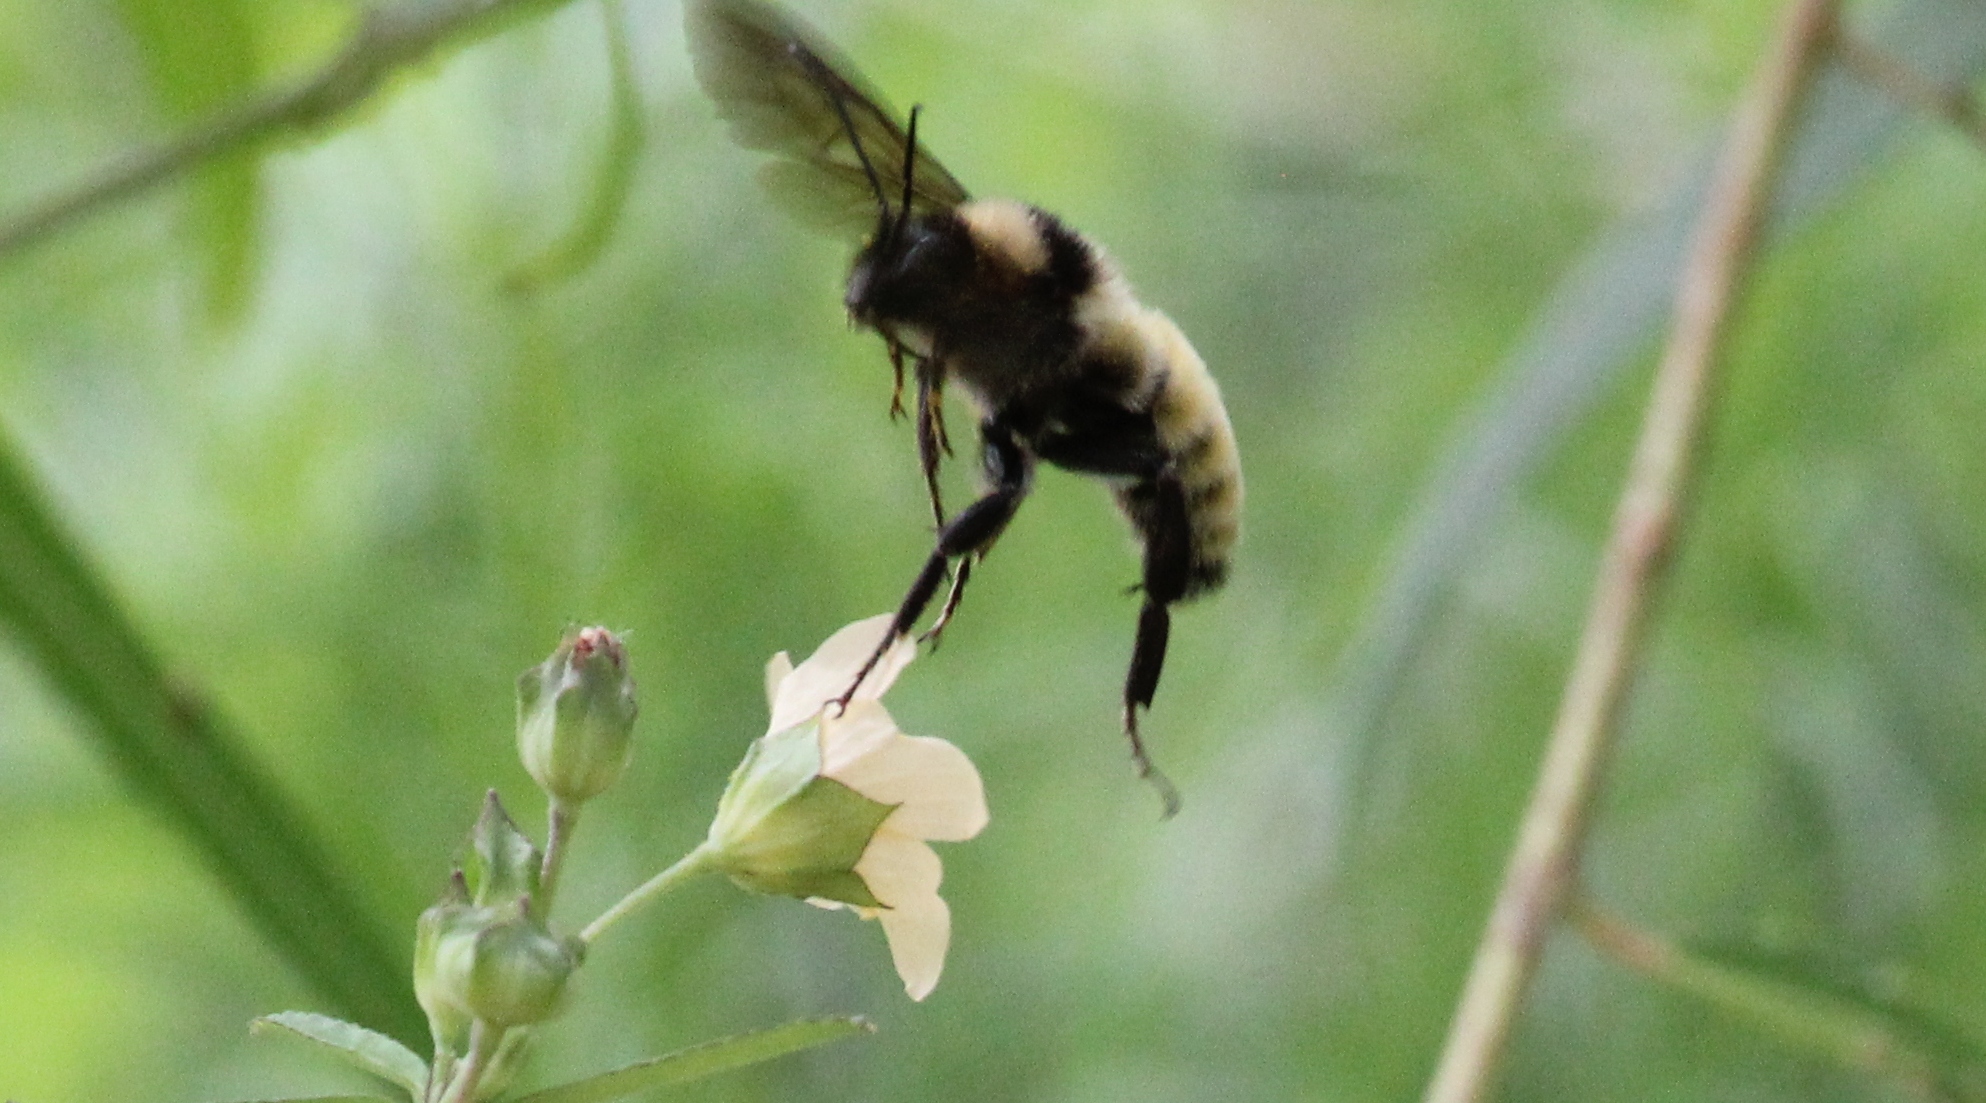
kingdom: Animalia
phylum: Arthropoda
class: Insecta
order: Hymenoptera
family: Apidae
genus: Bombus
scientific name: Bombus pensylvanicus
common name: Bumble bee
